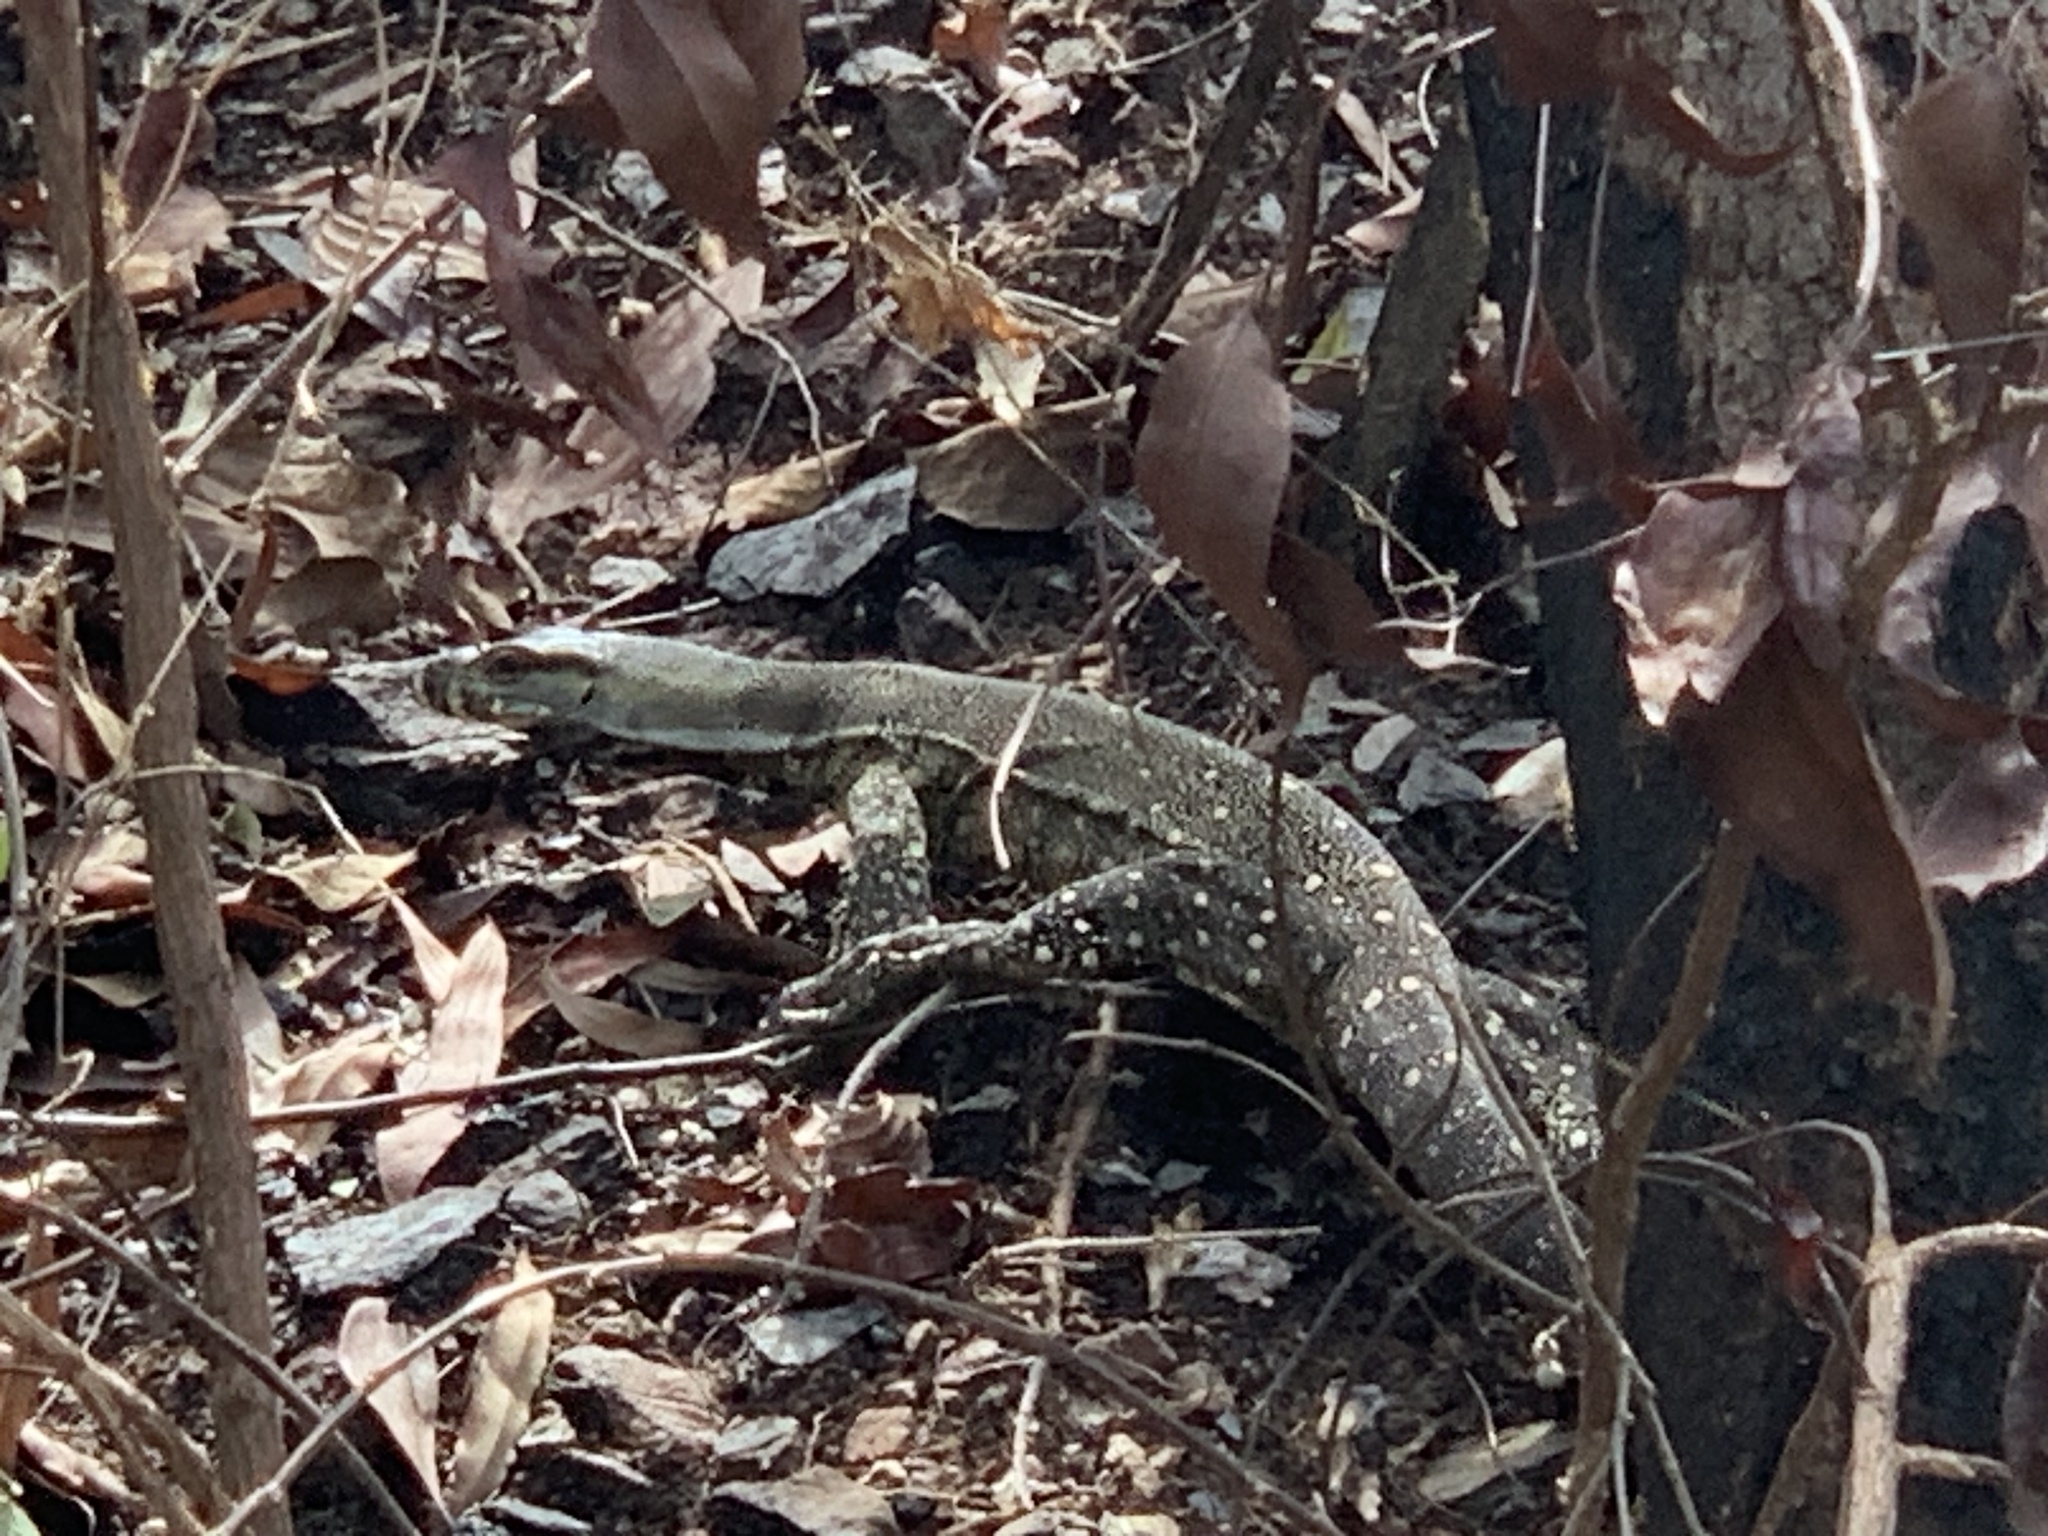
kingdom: Animalia
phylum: Chordata
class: Squamata
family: Varanidae
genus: Varanus
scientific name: Varanus varius
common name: Lace monitor
